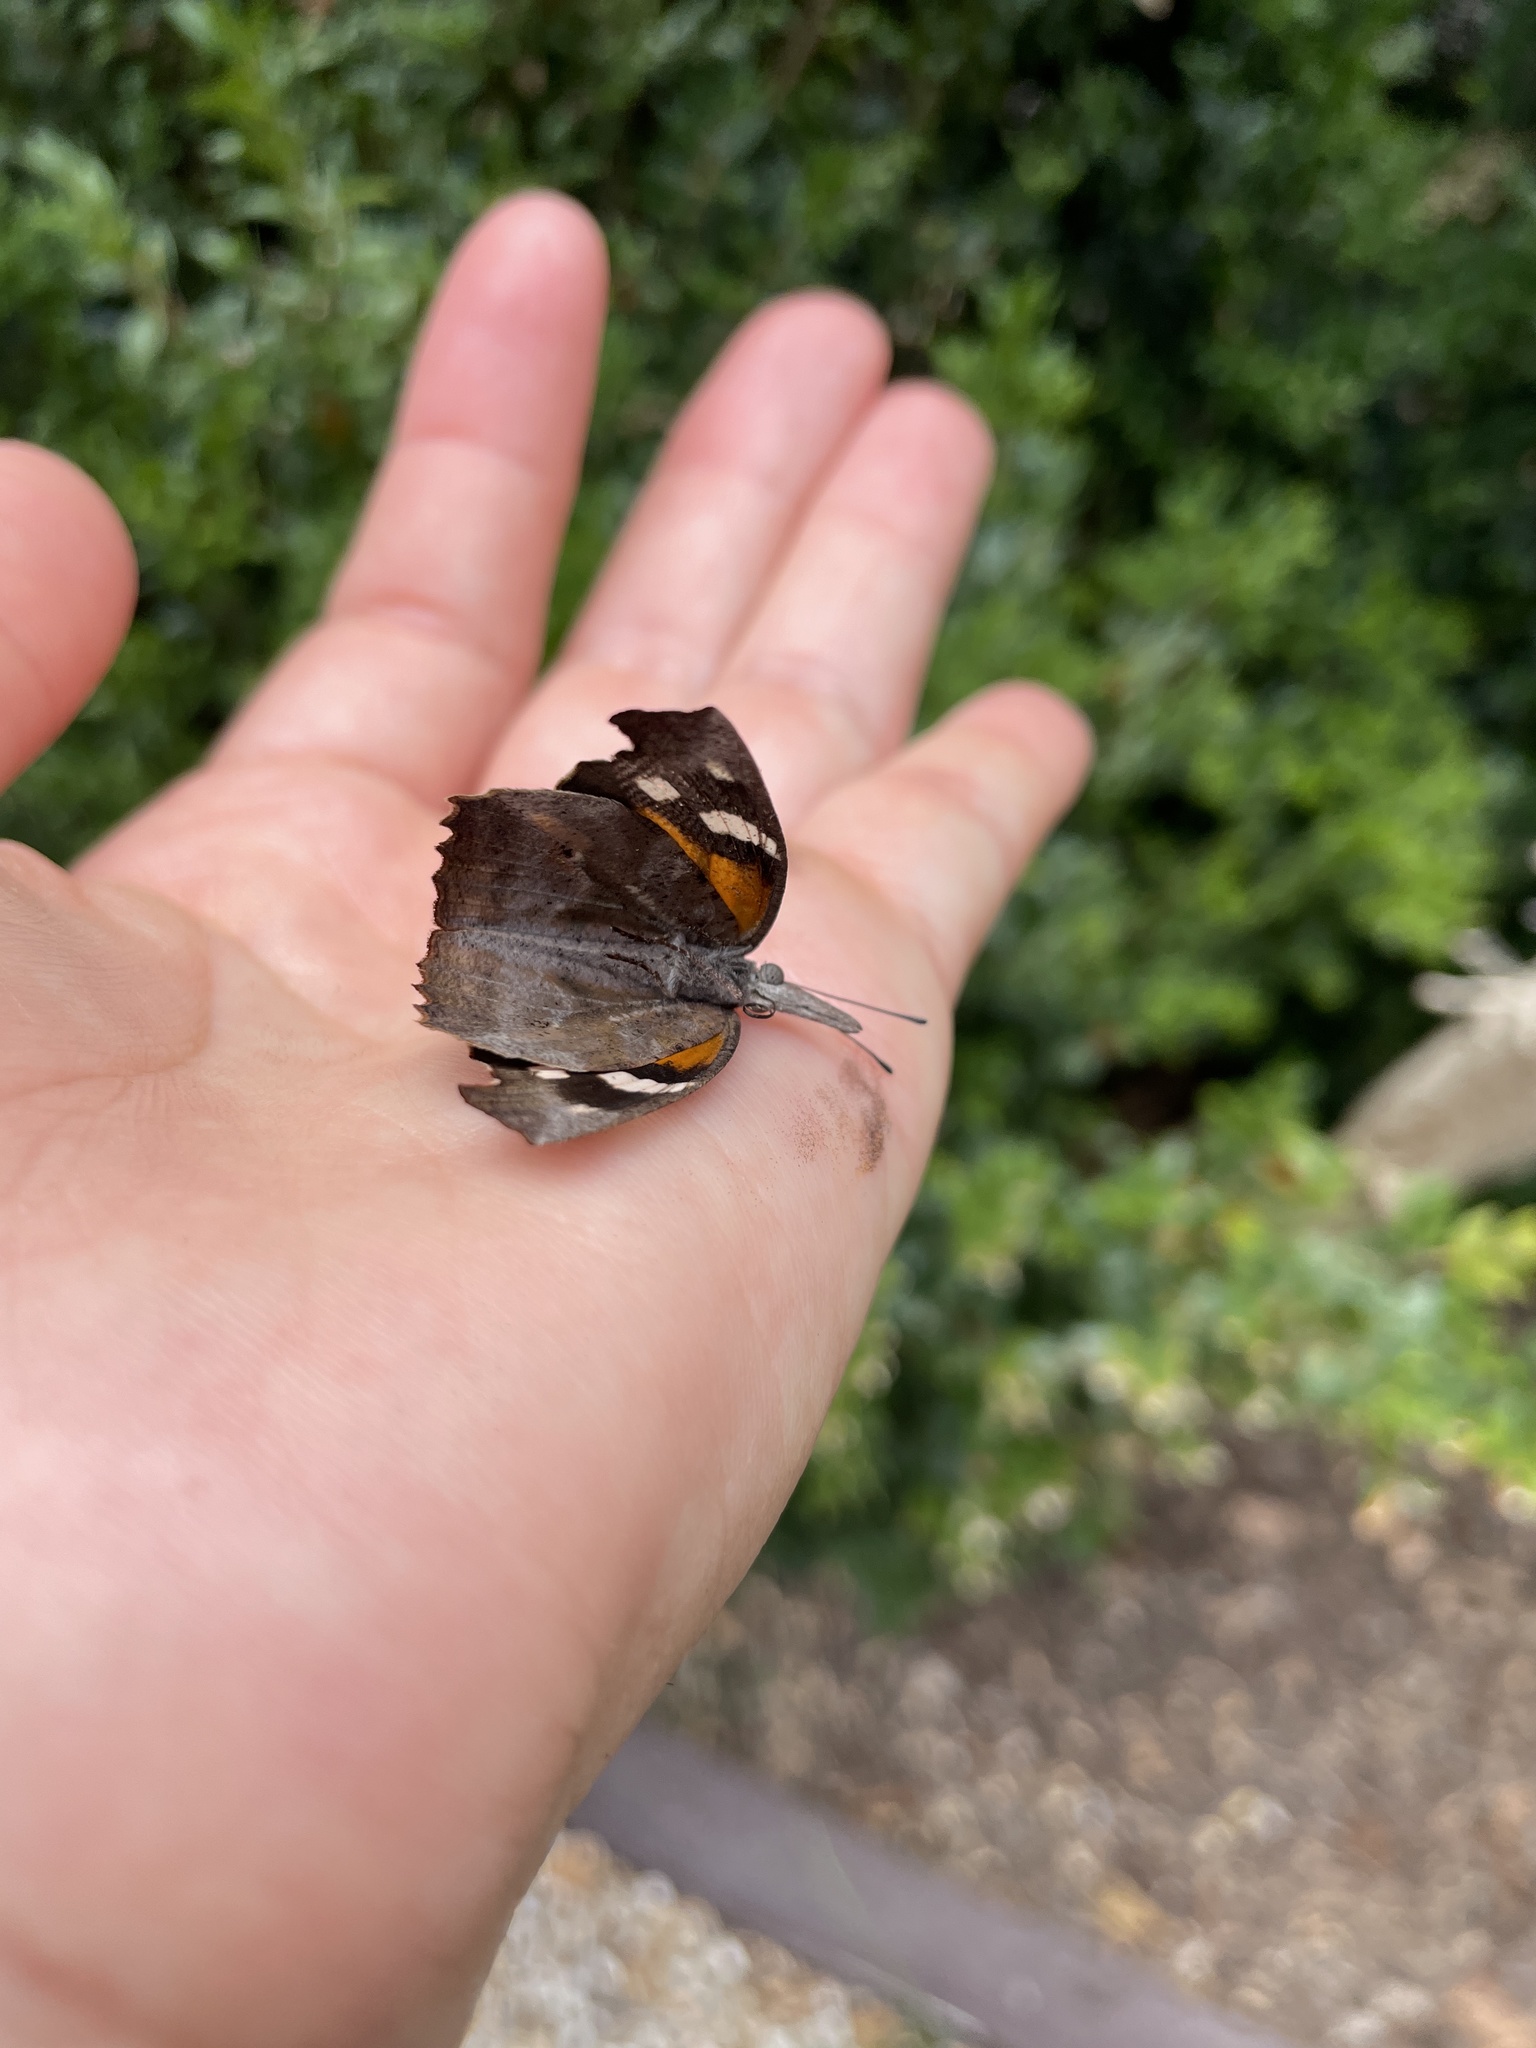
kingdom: Animalia
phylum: Arthropoda
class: Insecta
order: Lepidoptera
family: Nymphalidae
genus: Libytheana
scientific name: Libytheana carinenta
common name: American snout
